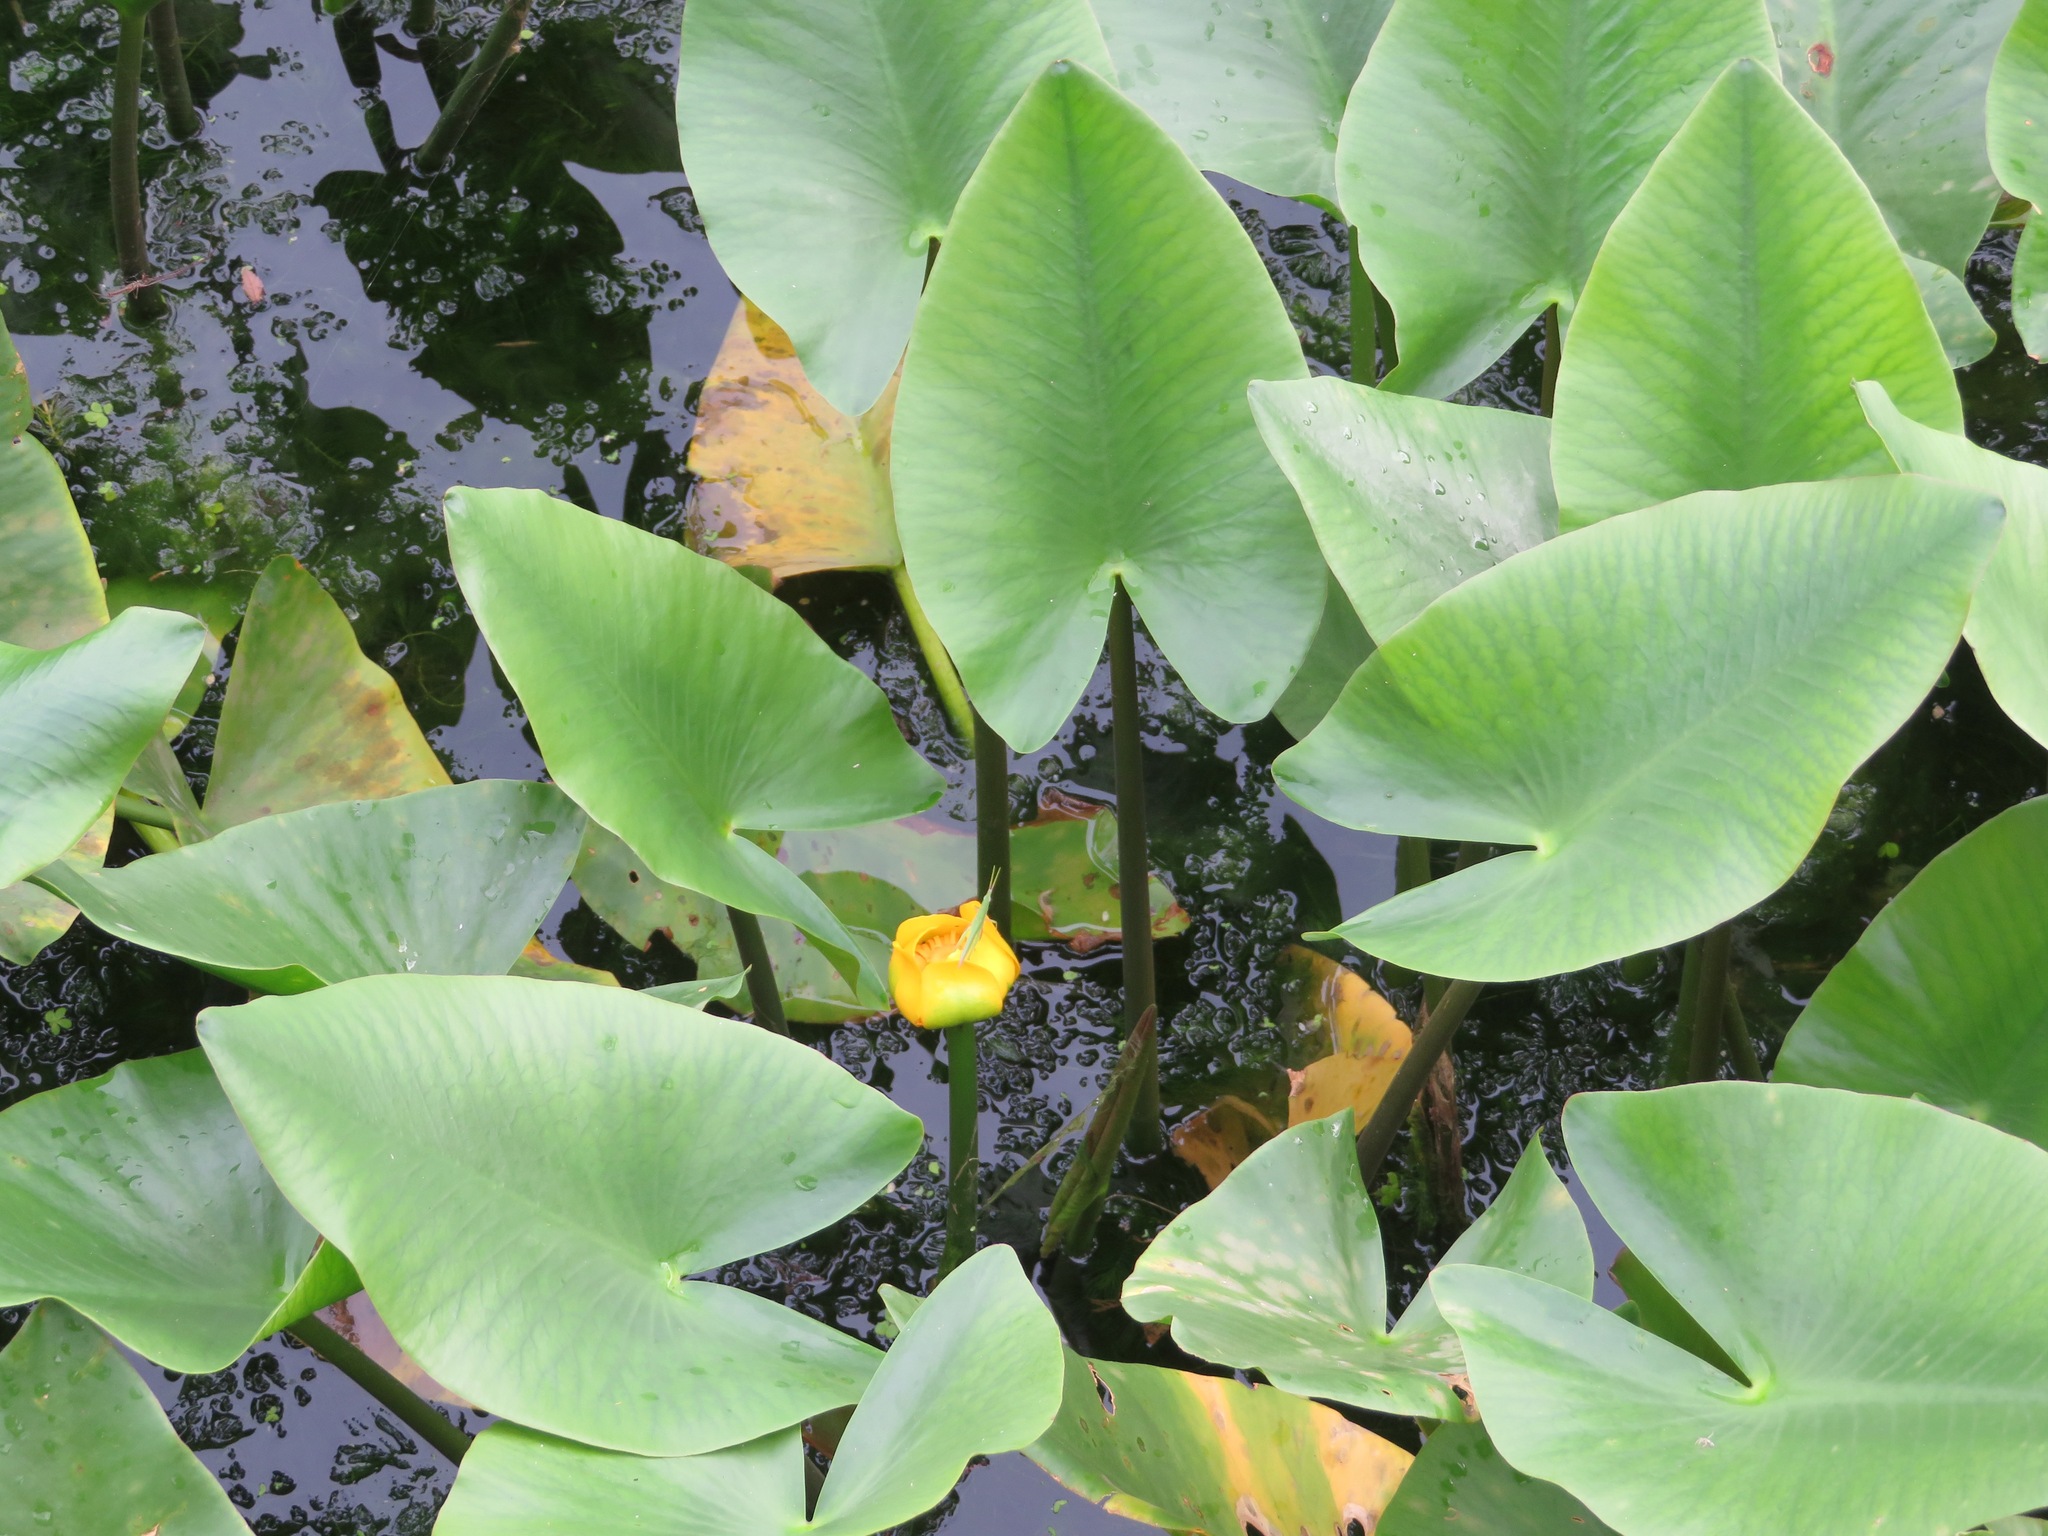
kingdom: Plantae
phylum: Tracheophyta
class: Magnoliopsida
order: Nymphaeales
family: Nymphaeaceae
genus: Nuphar
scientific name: Nuphar japonica
